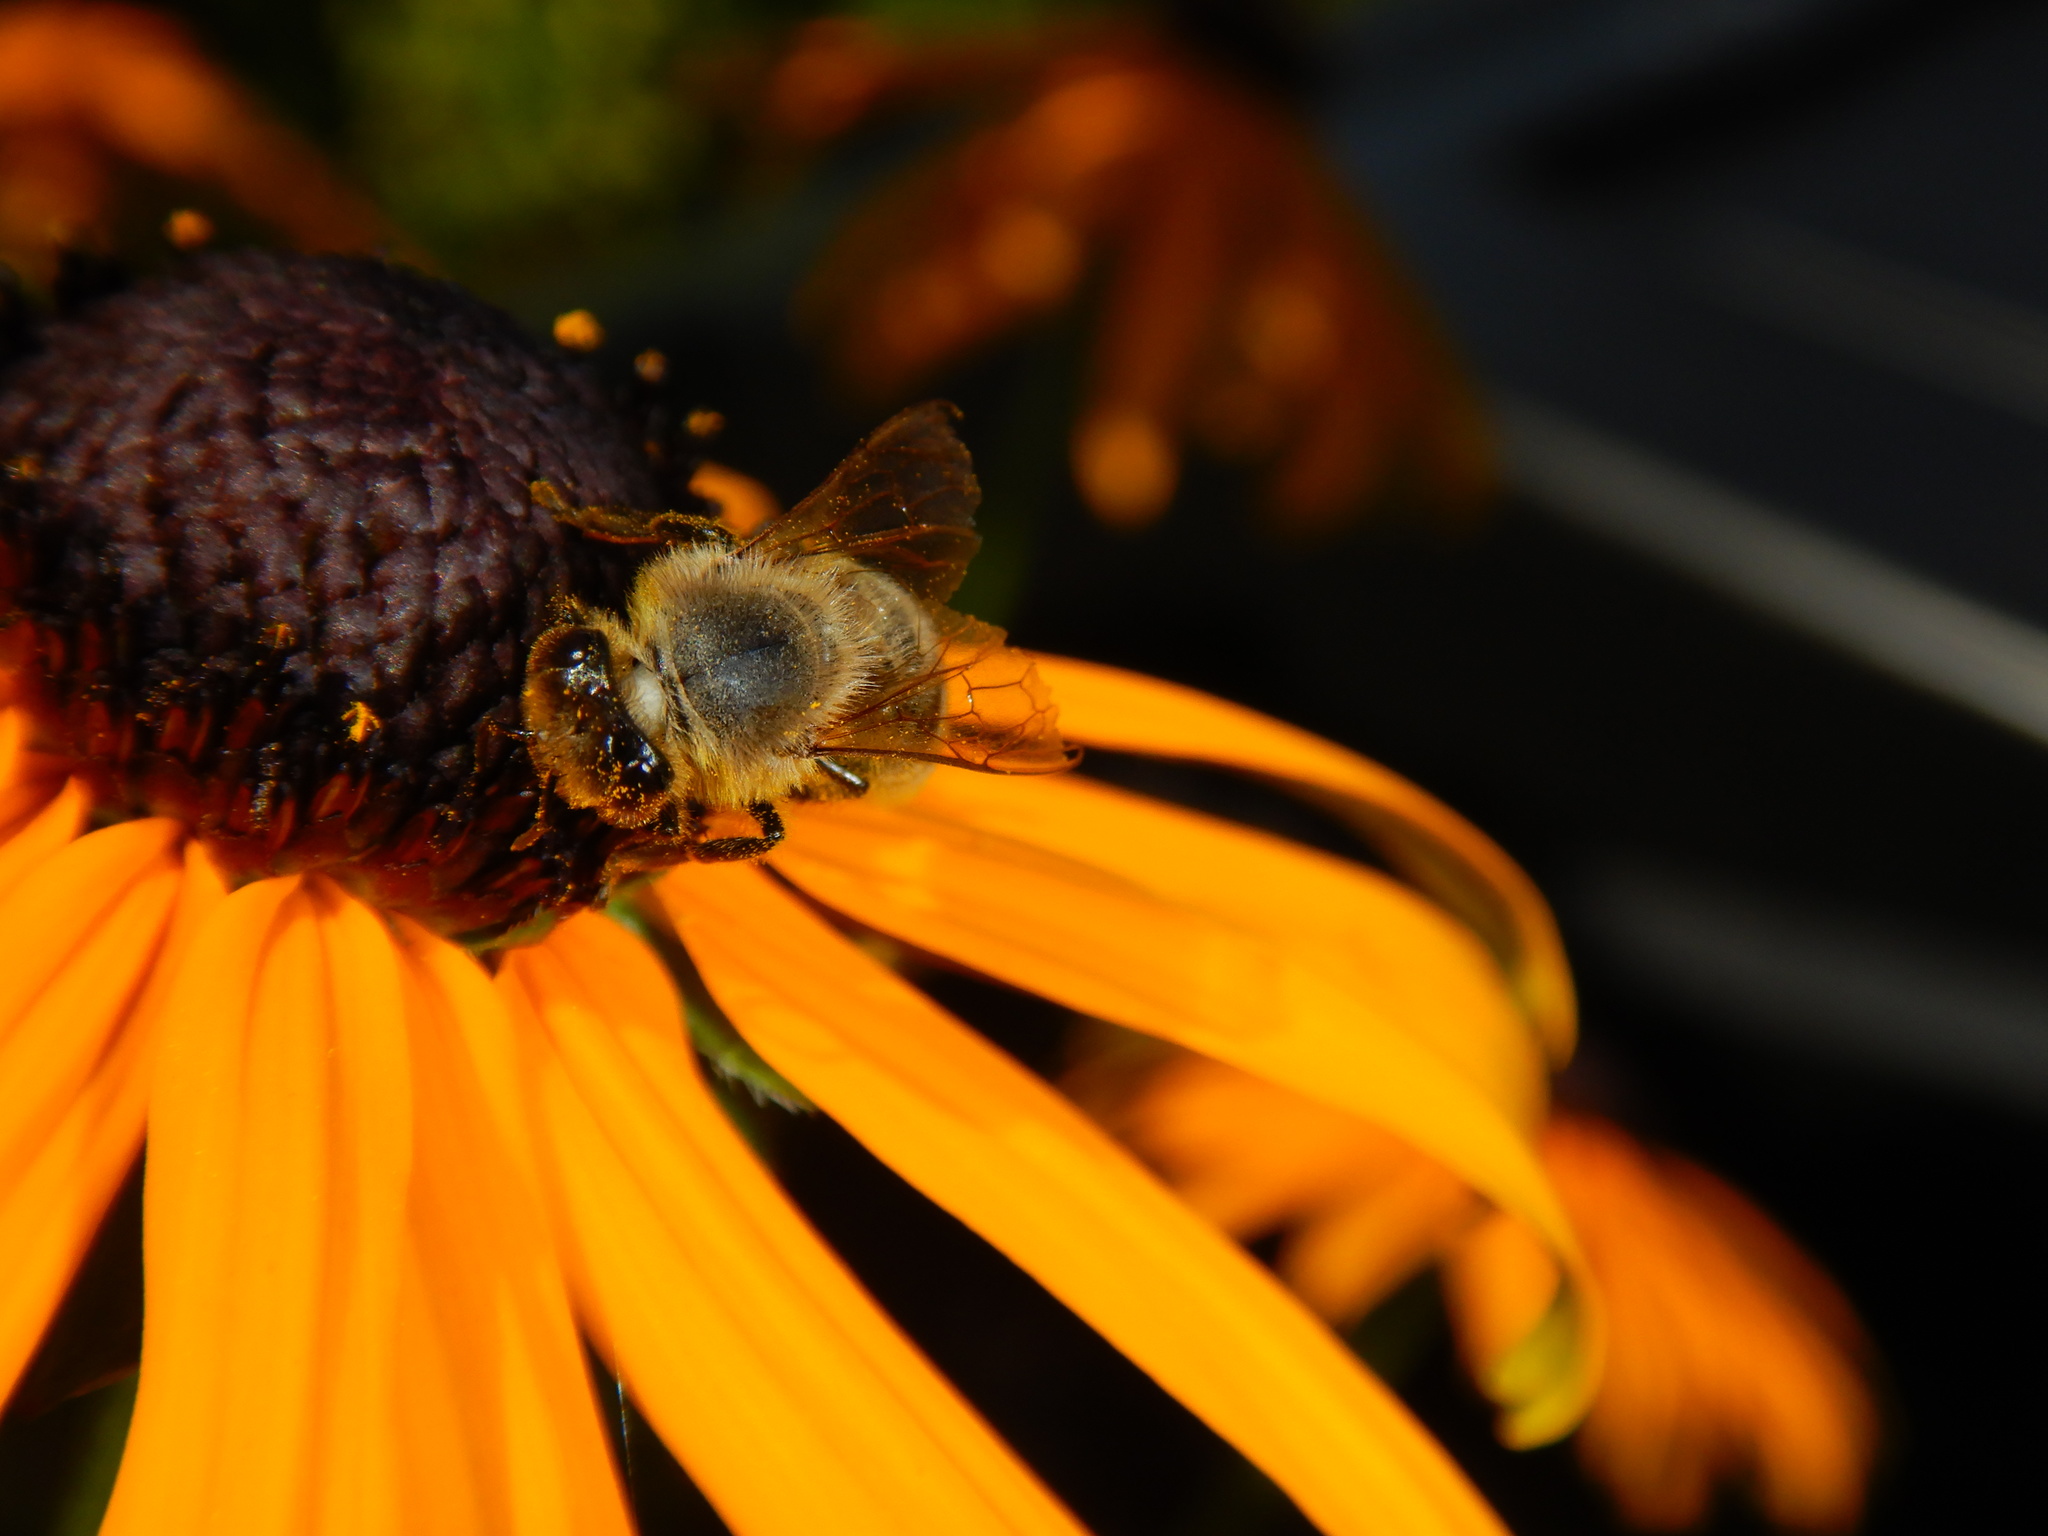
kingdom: Animalia
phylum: Arthropoda
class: Insecta
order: Hymenoptera
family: Apidae
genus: Apis
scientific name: Apis mellifera
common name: Honey bee
